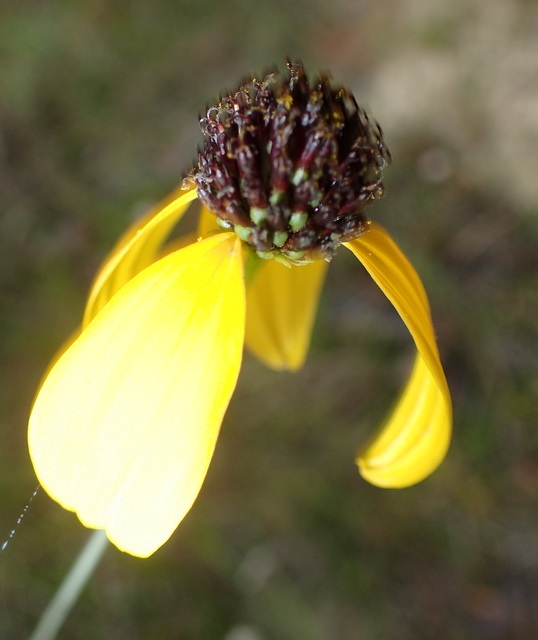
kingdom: Plantae
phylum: Tracheophyta
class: Magnoliopsida
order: Asterales
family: Asteraceae
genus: Rudbeckia
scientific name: Rudbeckia mohrii
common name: Grassy coneflower
